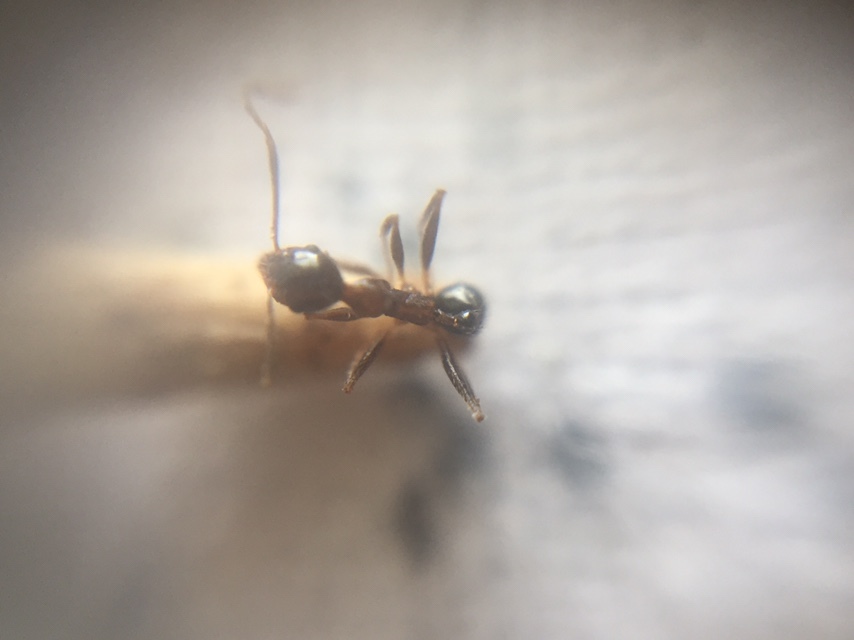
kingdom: Animalia
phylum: Arthropoda
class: Insecta
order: Hymenoptera
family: Formicidae
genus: Pheidole
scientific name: Pheidole indica
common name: Big-headed ant
